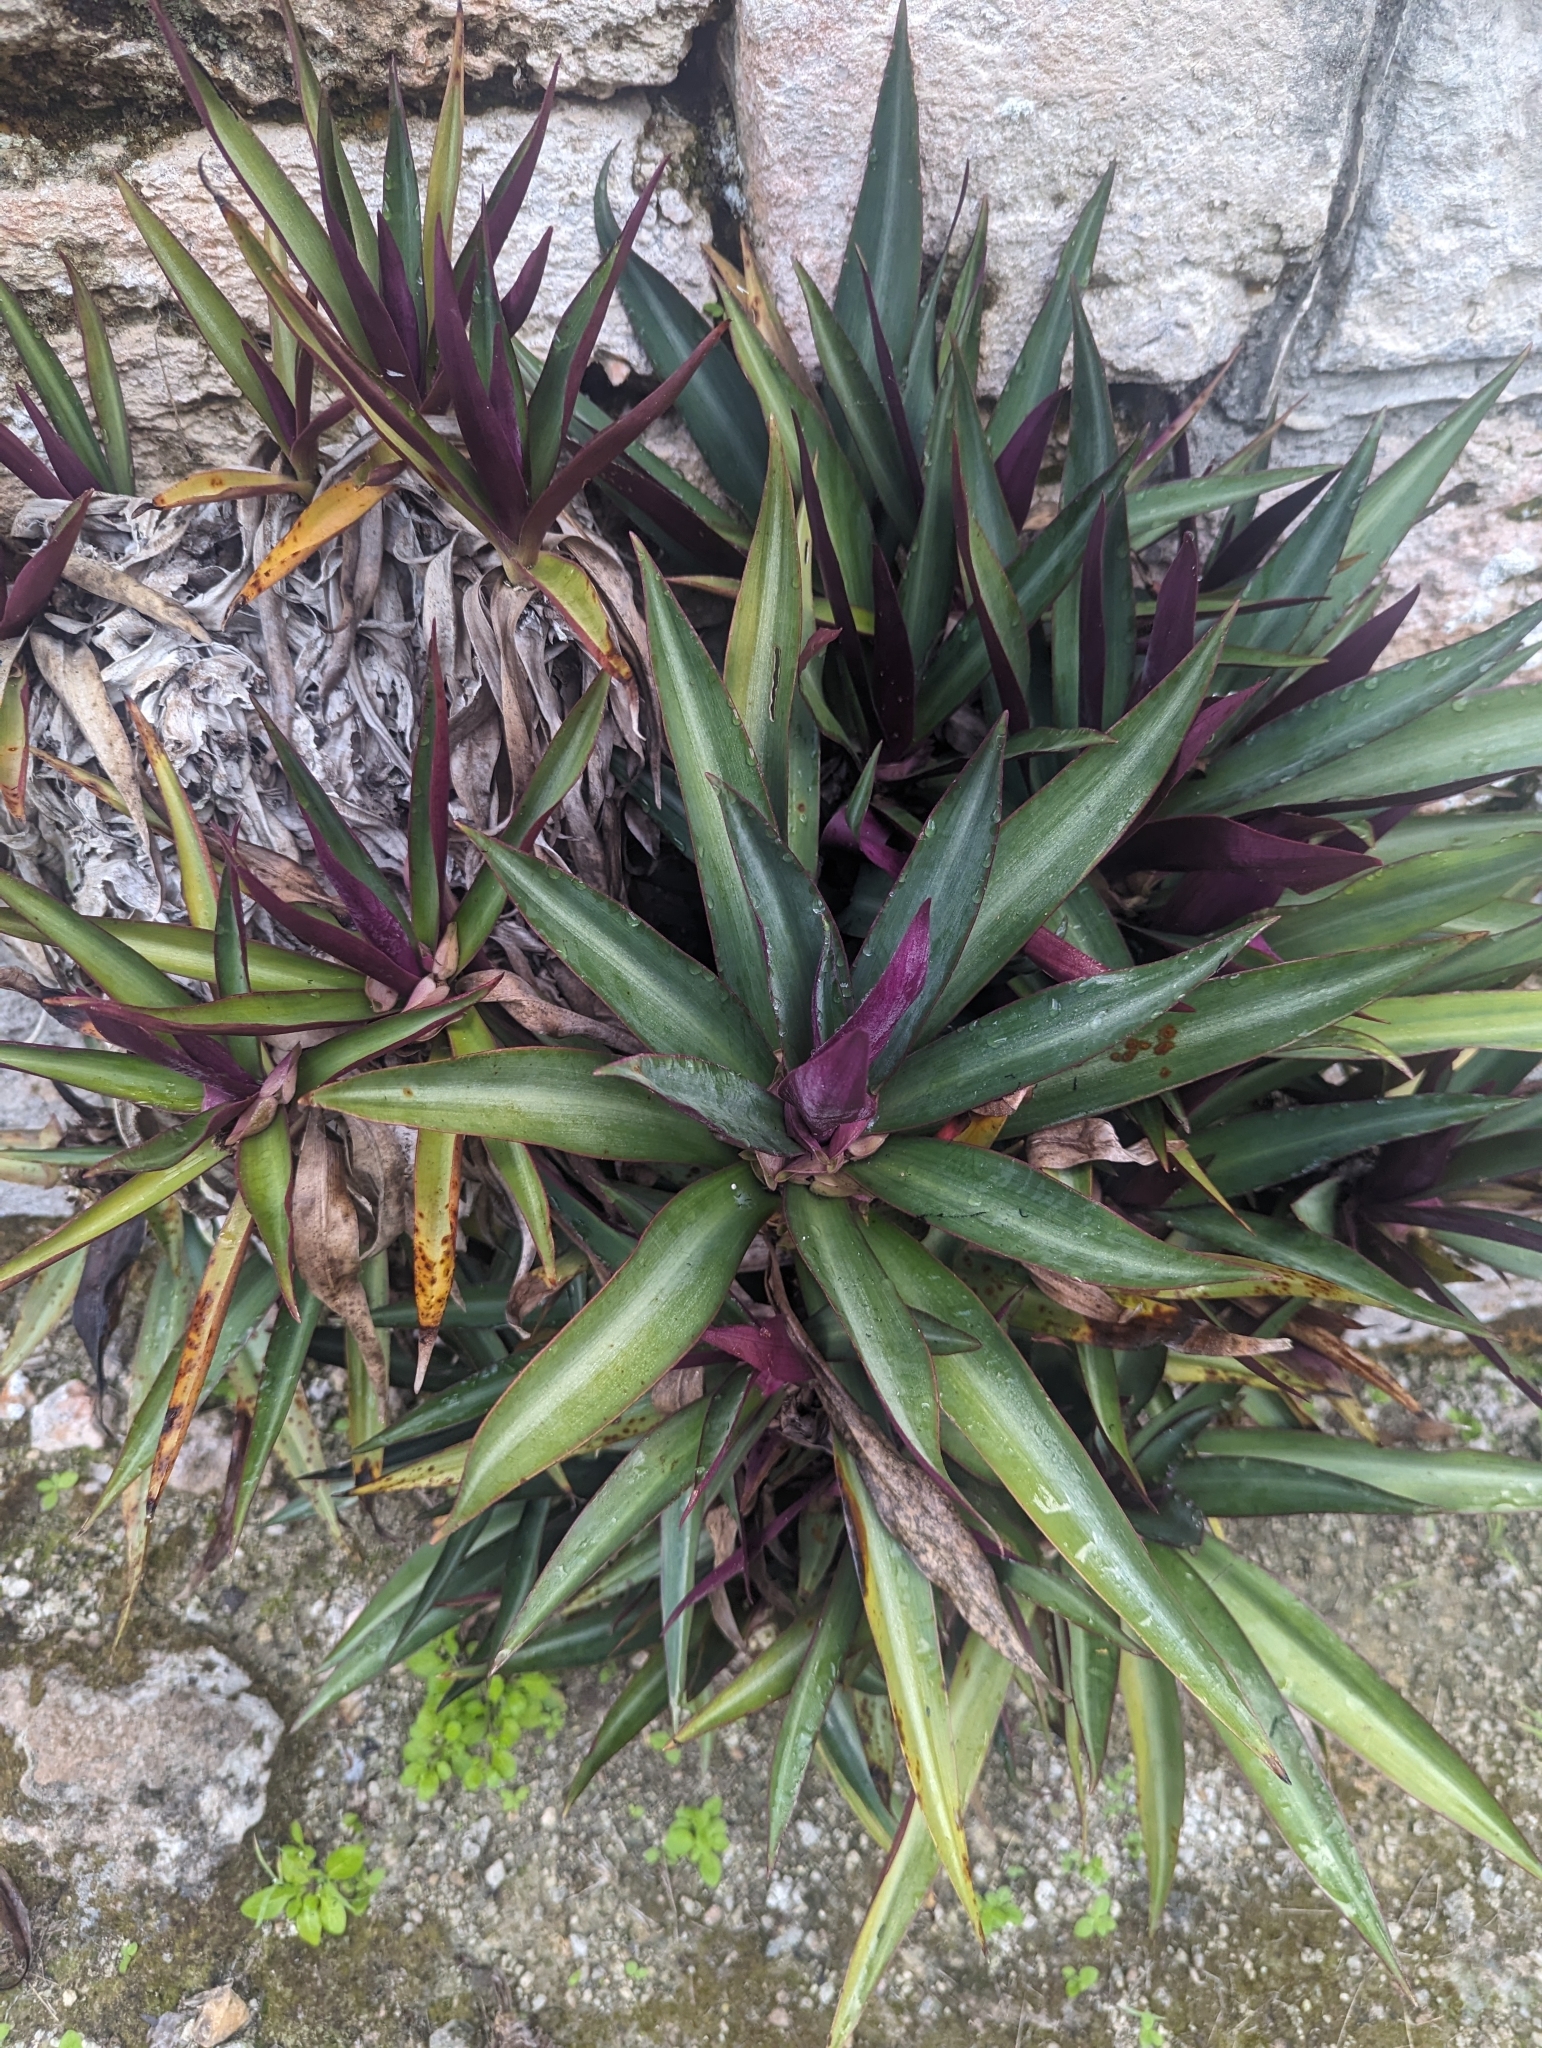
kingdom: Plantae
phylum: Tracheophyta
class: Liliopsida
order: Commelinales
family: Commelinaceae
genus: Tradescantia
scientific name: Tradescantia spathacea
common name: Boatlily
